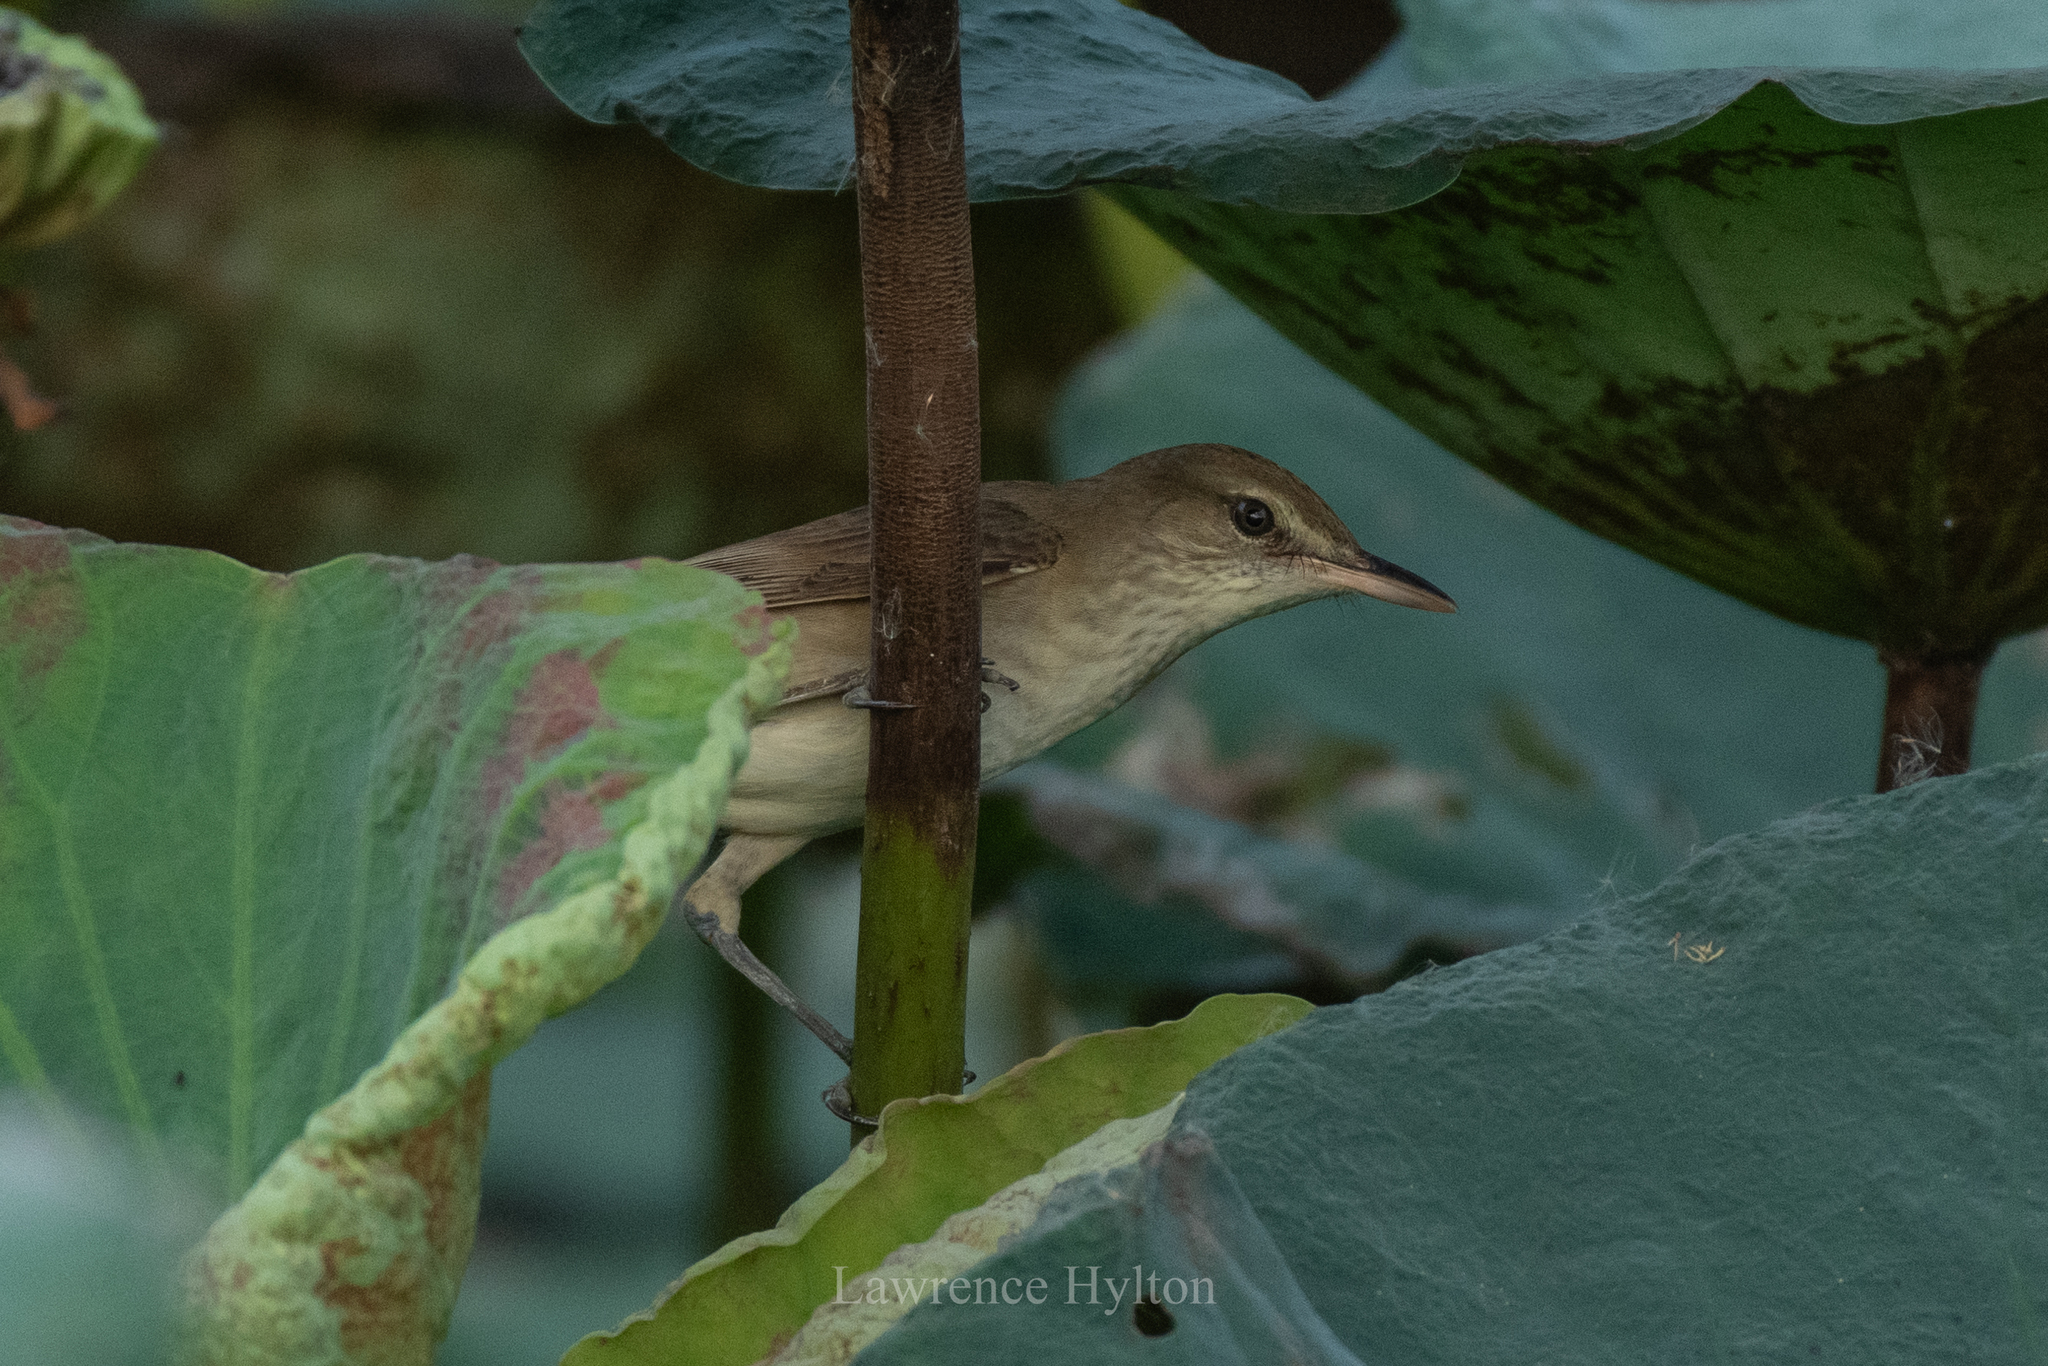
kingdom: Animalia
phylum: Chordata
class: Aves
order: Passeriformes
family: Acrocephalidae
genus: Acrocephalus
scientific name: Acrocephalus orientalis
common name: Oriental reed warbler
